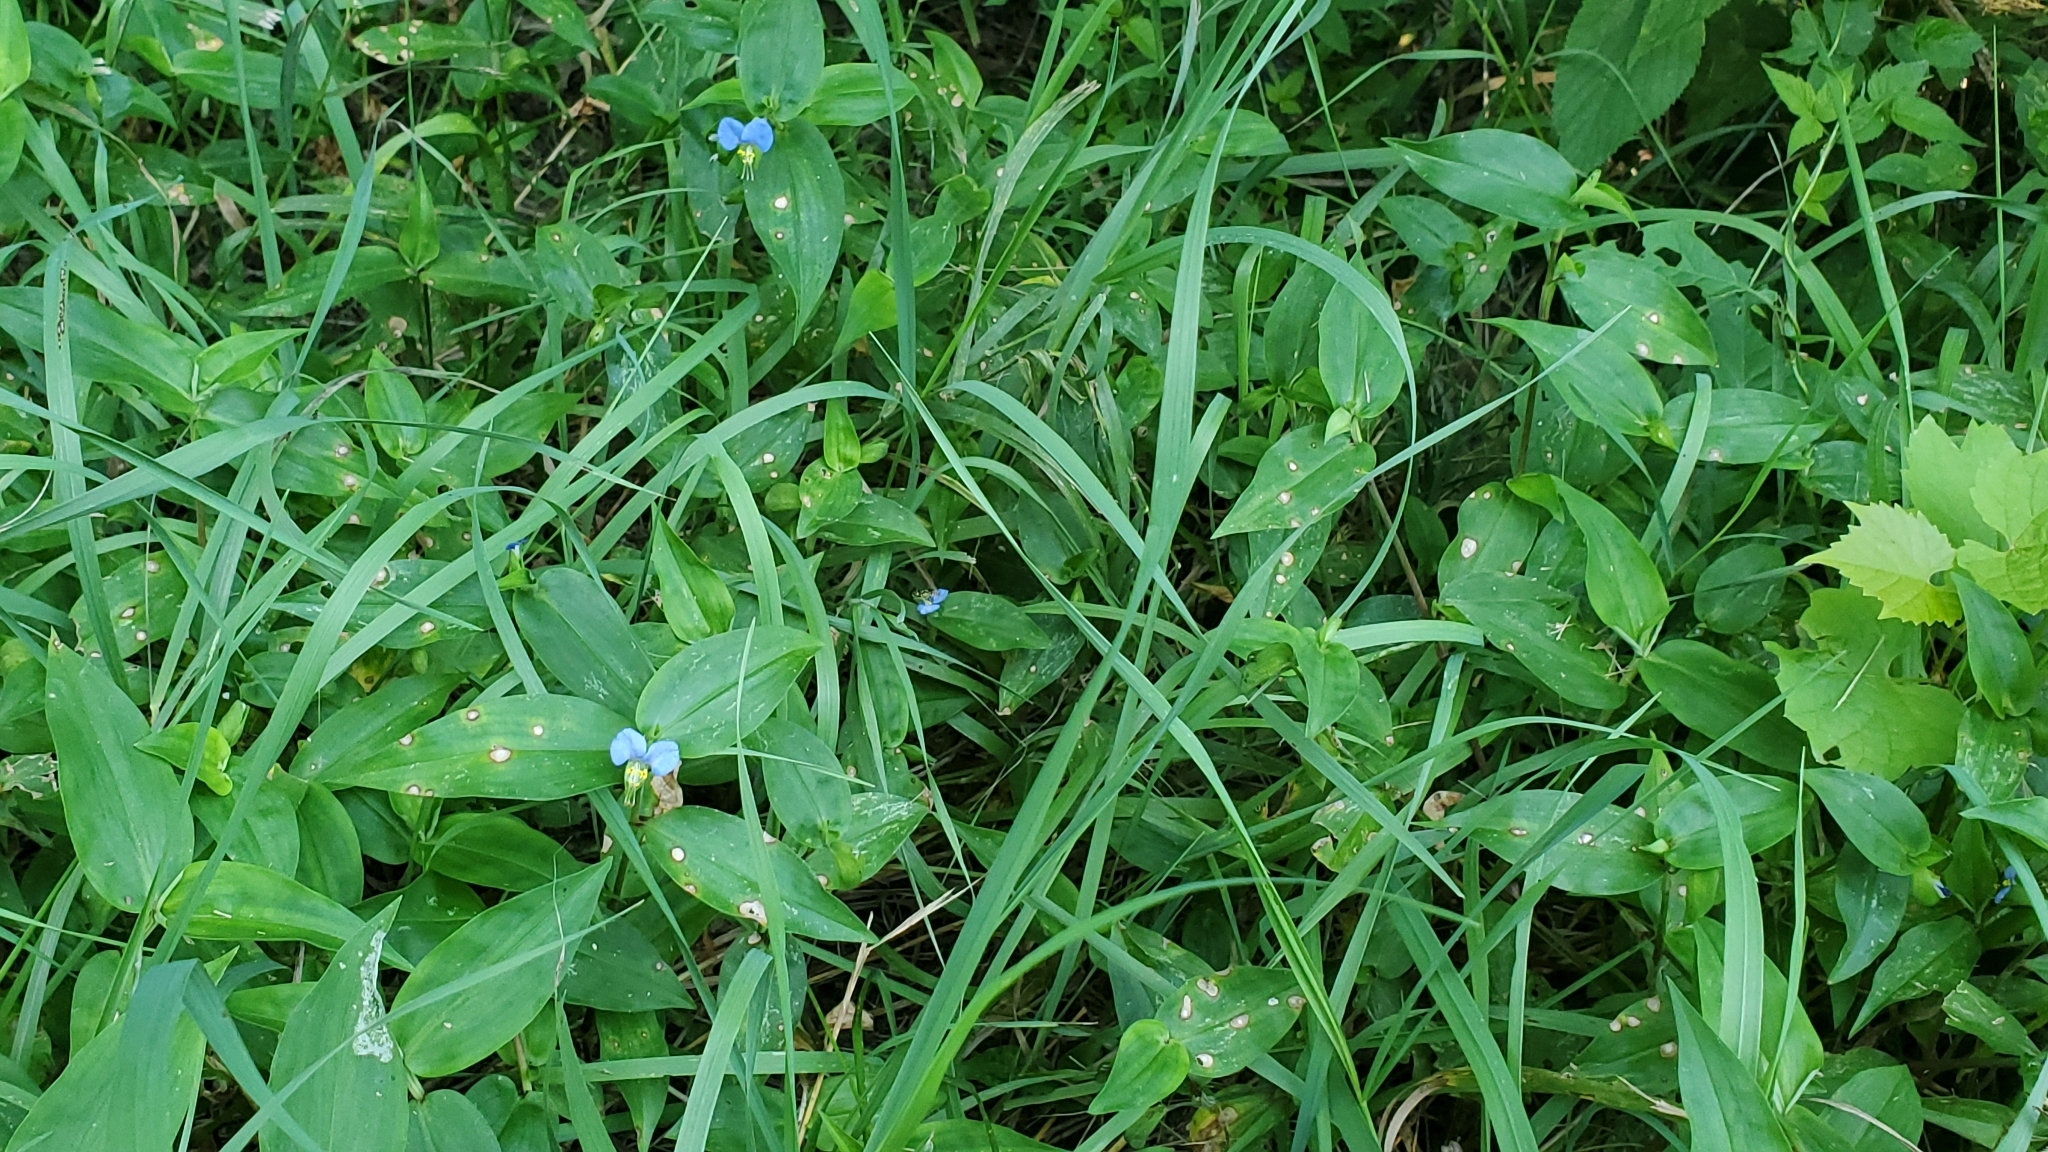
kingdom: Plantae
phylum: Tracheophyta
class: Liliopsida
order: Commelinales
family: Commelinaceae
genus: Commelina
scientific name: Commelina communis
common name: Asiatic dayflower
